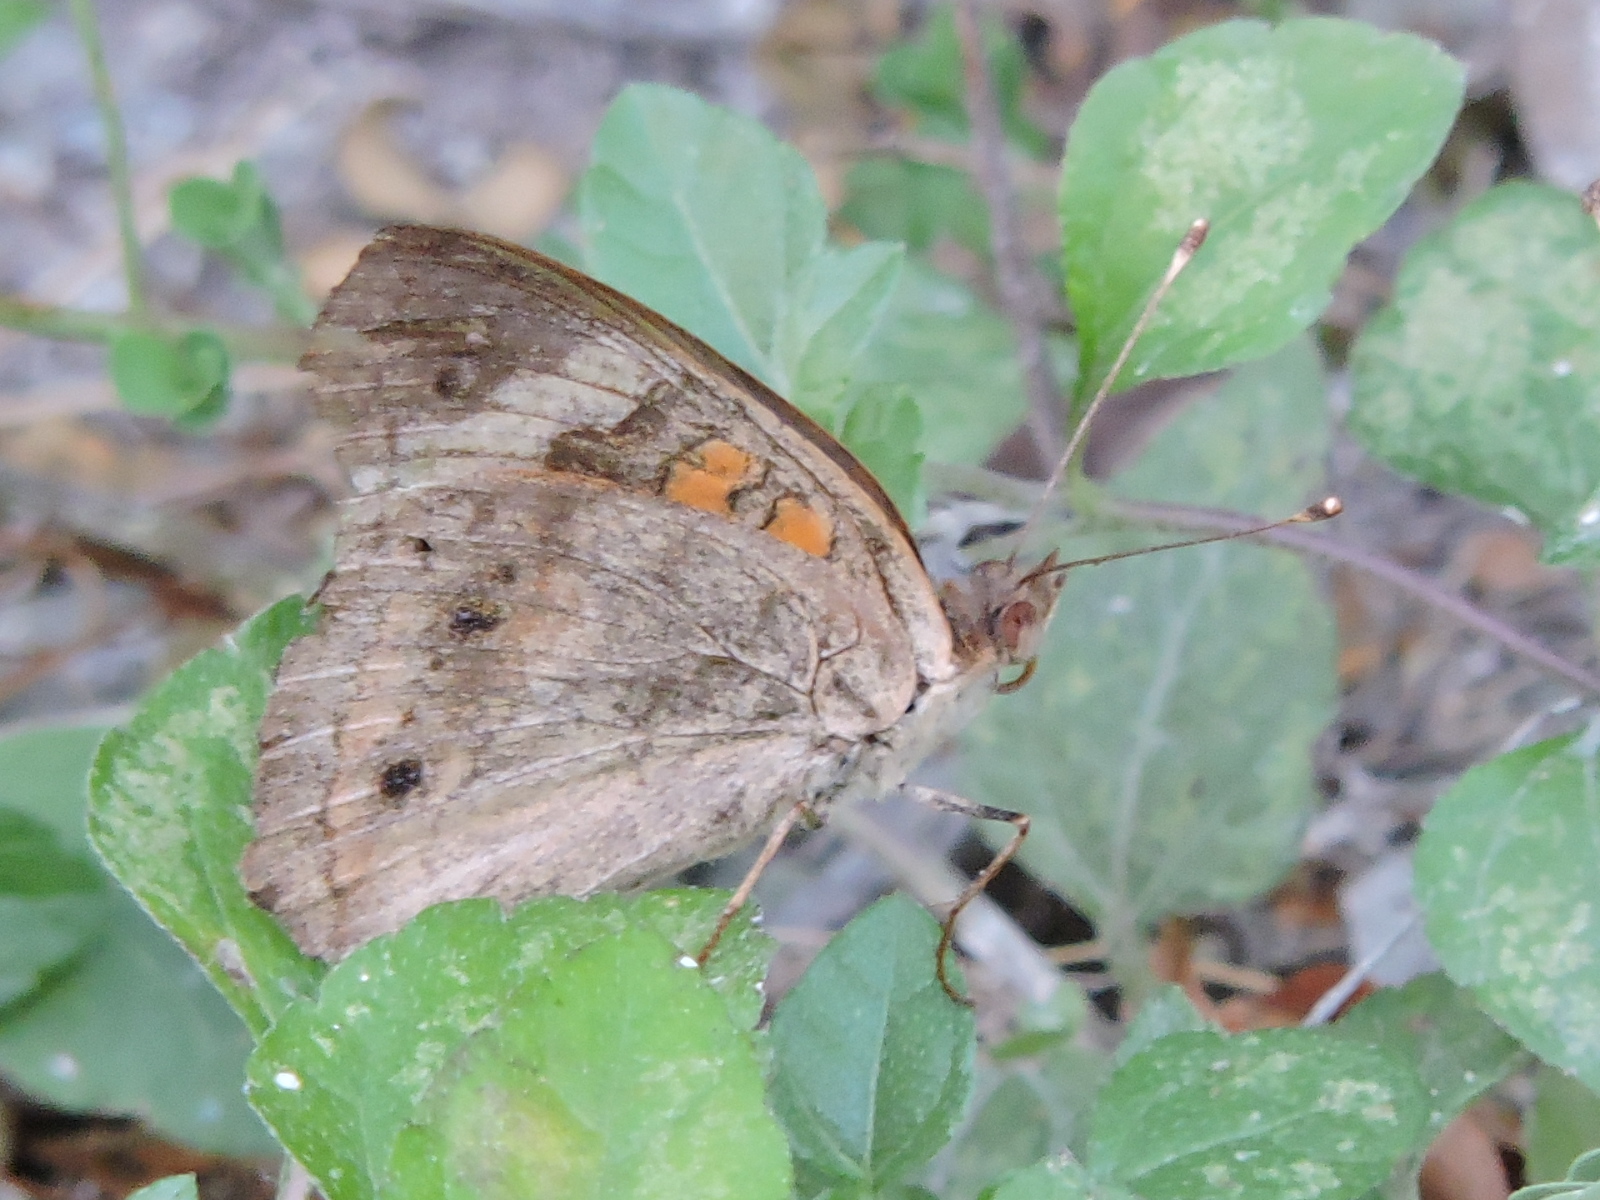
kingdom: Animalia
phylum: Arthropoda
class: Insecta
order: Lepidoptera
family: Nymphalidae
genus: Junonia
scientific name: Junonia coenia
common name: Common buckeye
